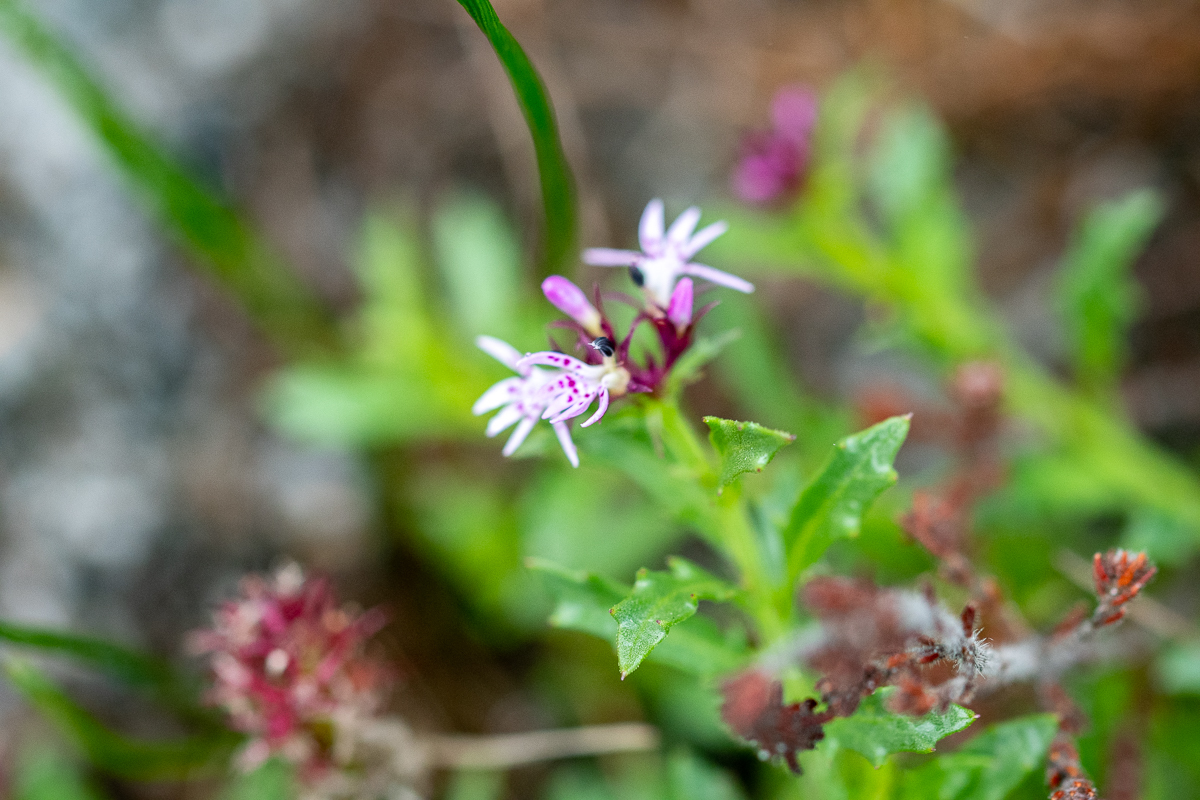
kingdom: Plantae
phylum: Tracheophyta
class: Magnoliopsida
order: Asterales
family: Campanulaceae
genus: Lobelia
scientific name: Lobelia jasionoides
